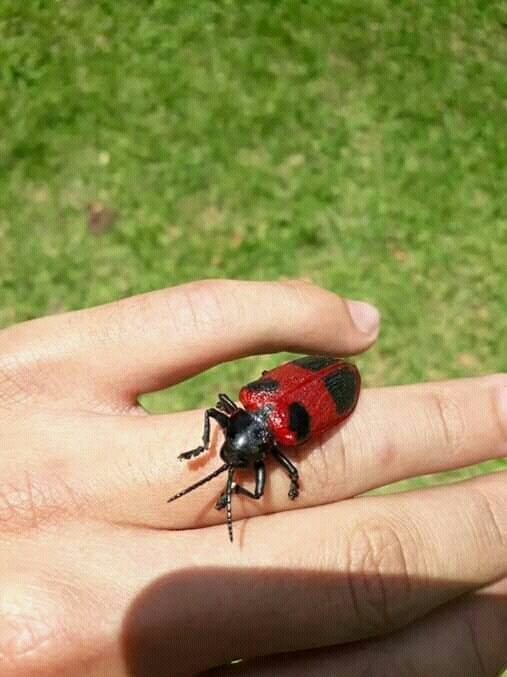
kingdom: Animalia
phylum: Arthropoda
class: Insecta
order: Coleoptera
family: Chrysomelidae
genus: Coraliomela
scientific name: Coraliomela quadrimaculata
